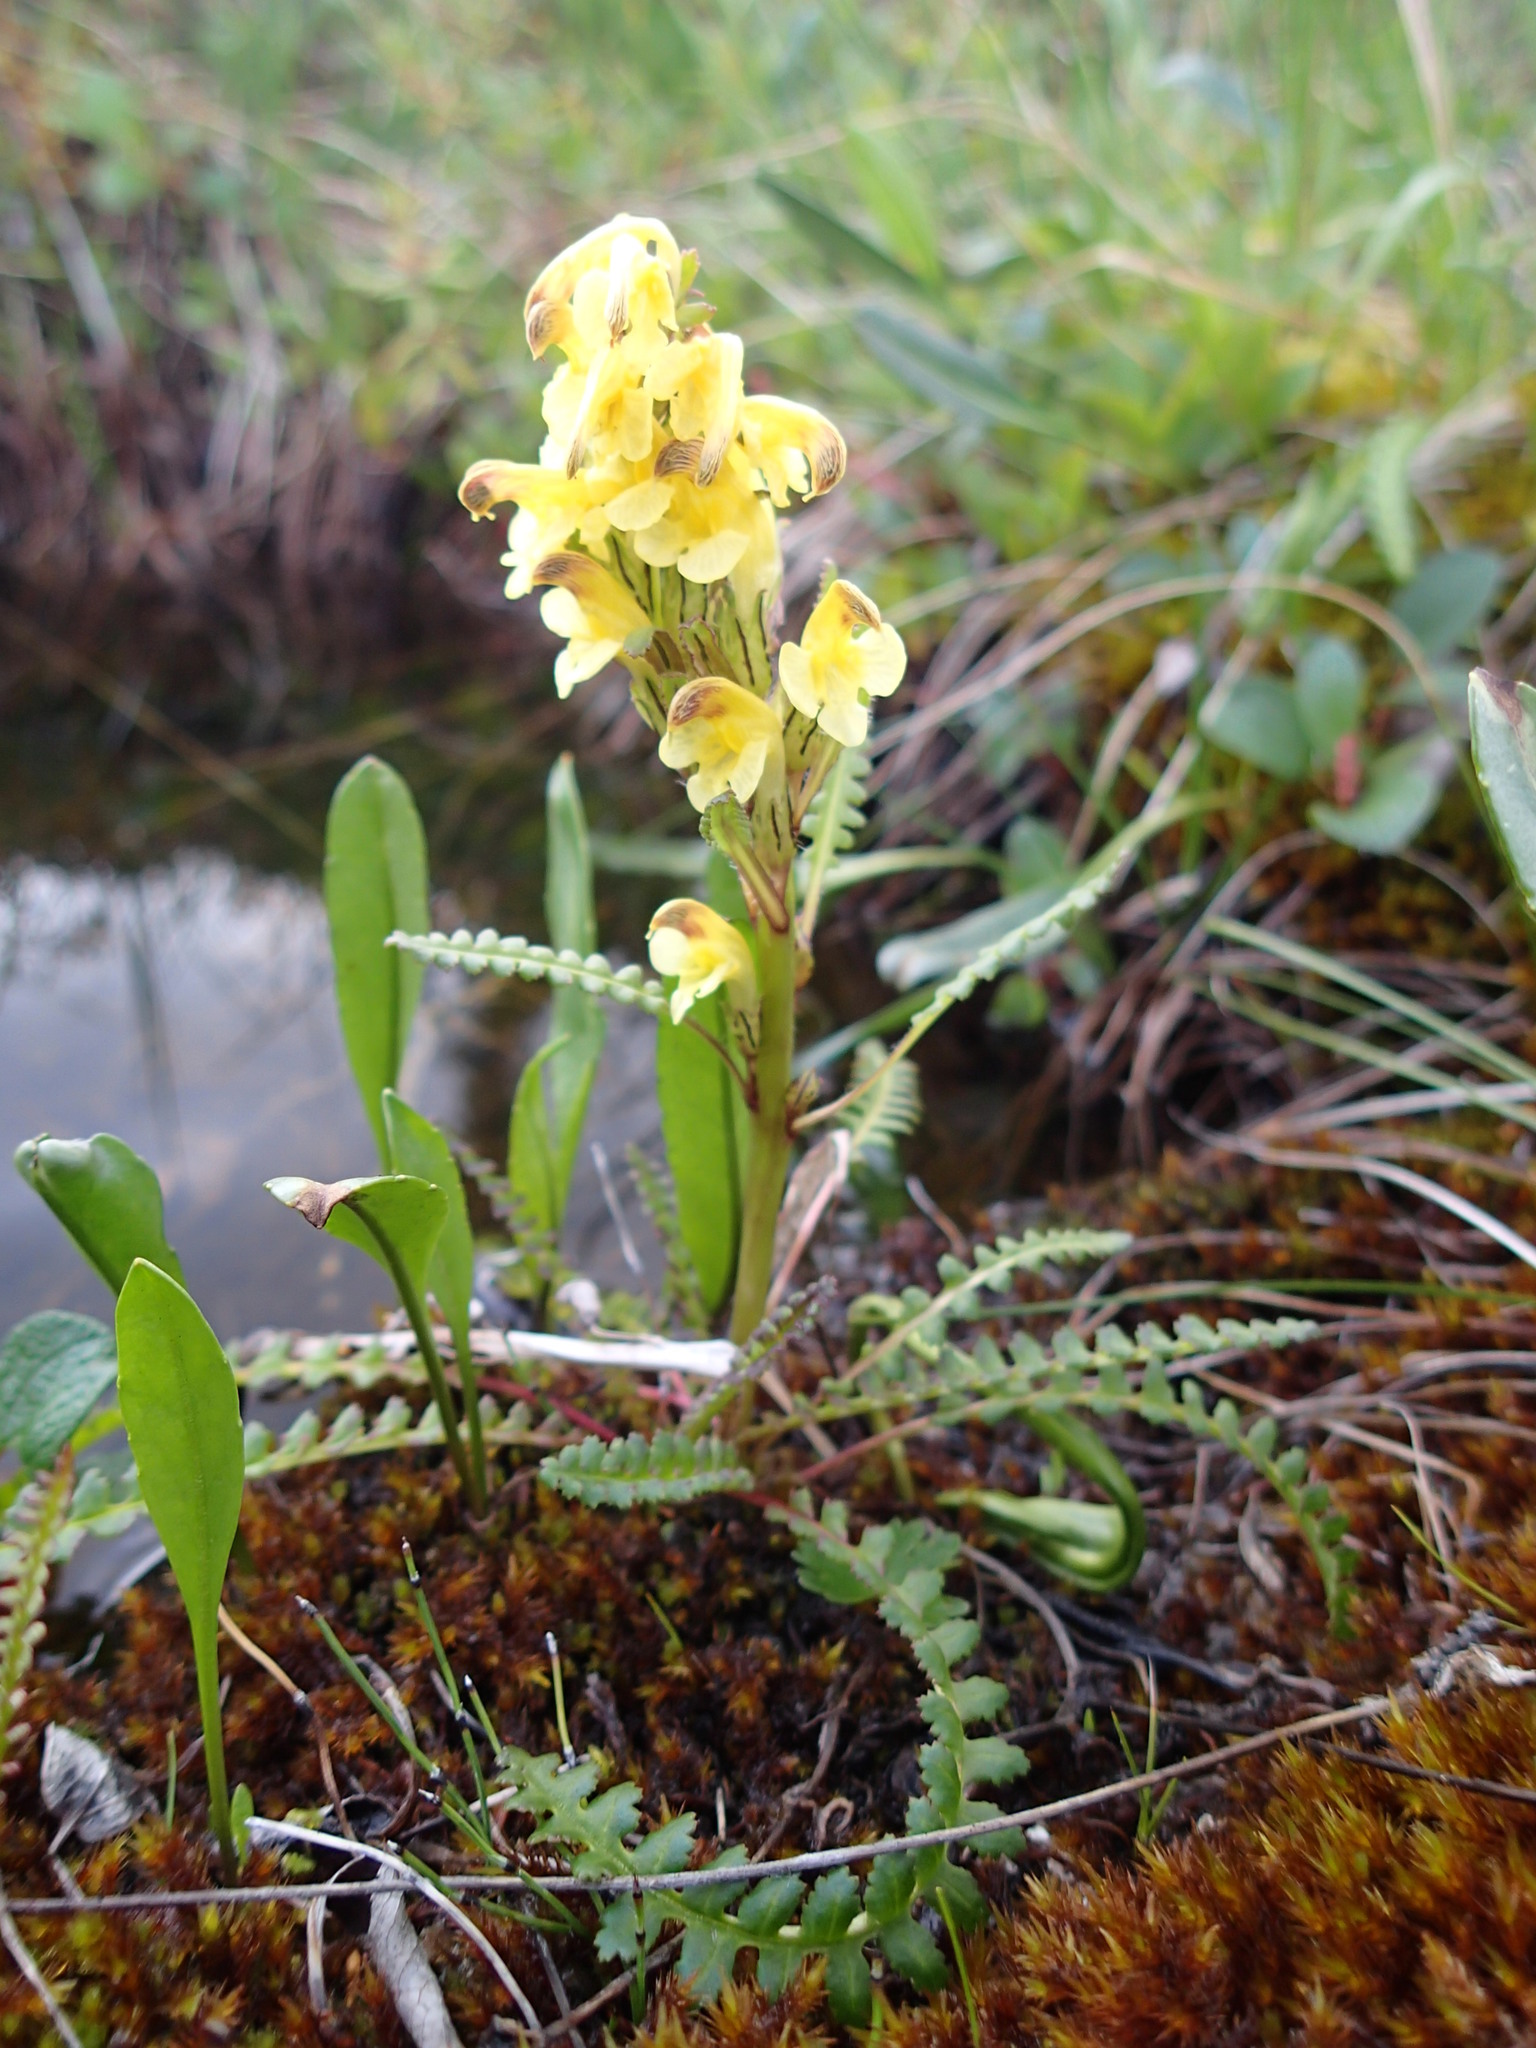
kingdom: Plantae
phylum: Tracheophyta
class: Magnoliopsida
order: Lamiales
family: Orobanchaceae
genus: Pedicularis
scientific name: Pedicularis oederi
